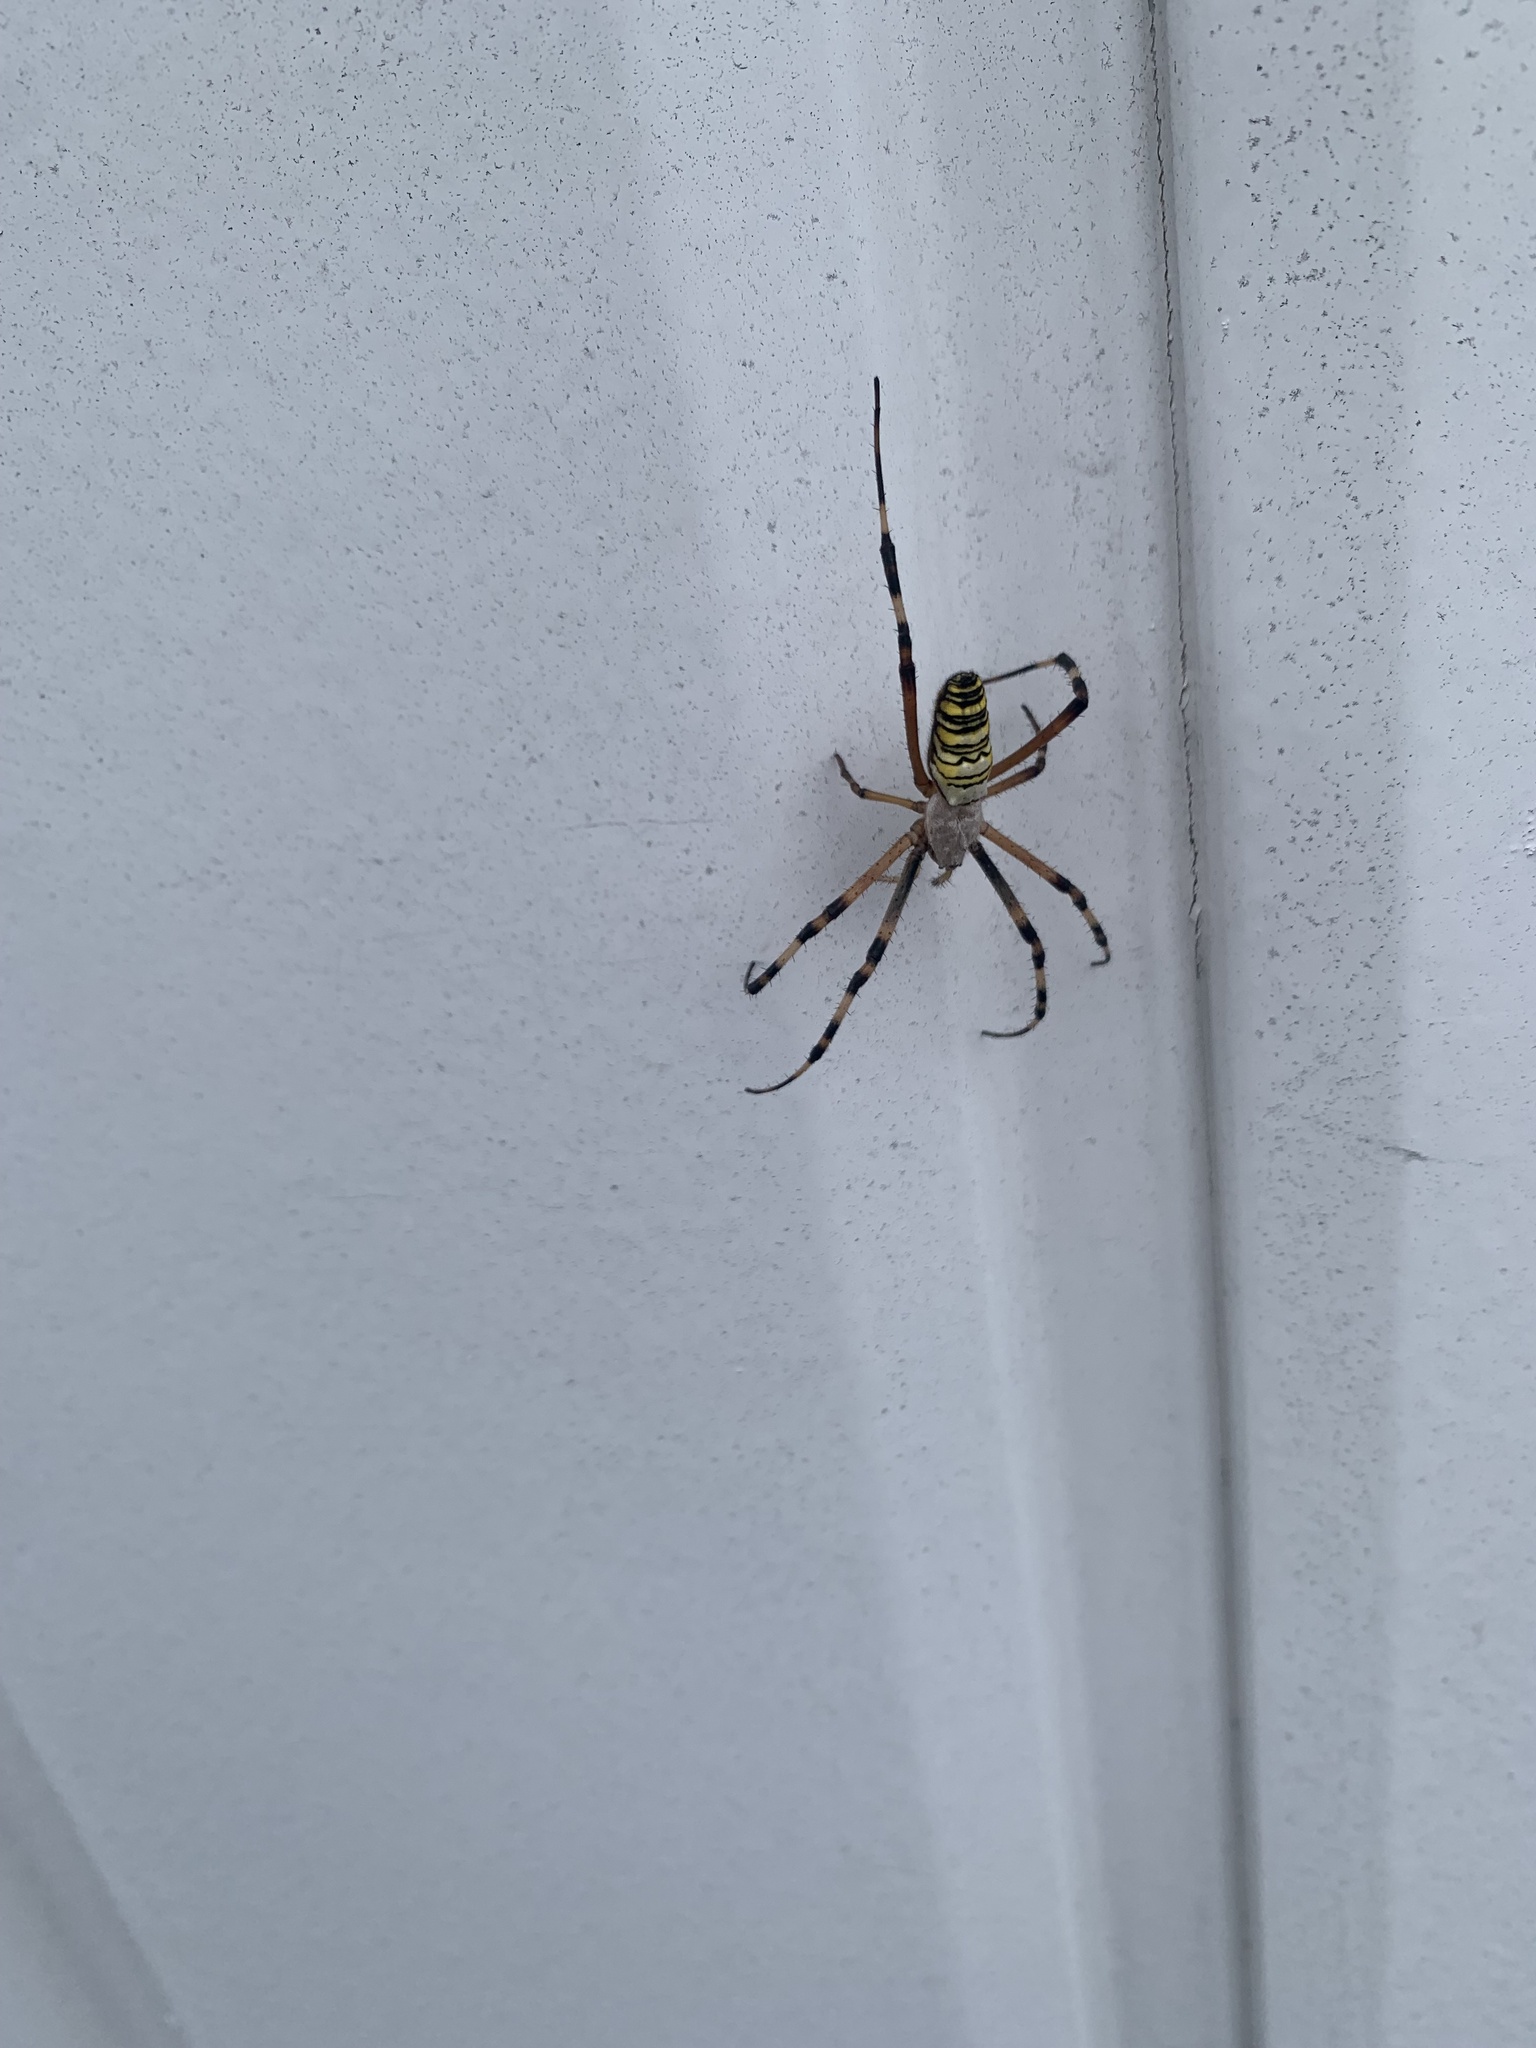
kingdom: Animalia
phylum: Arthropoda
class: Arachnida
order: Araneae
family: Araneidae
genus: Argiope
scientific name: Argiope bruennichi
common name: Wasp spider
